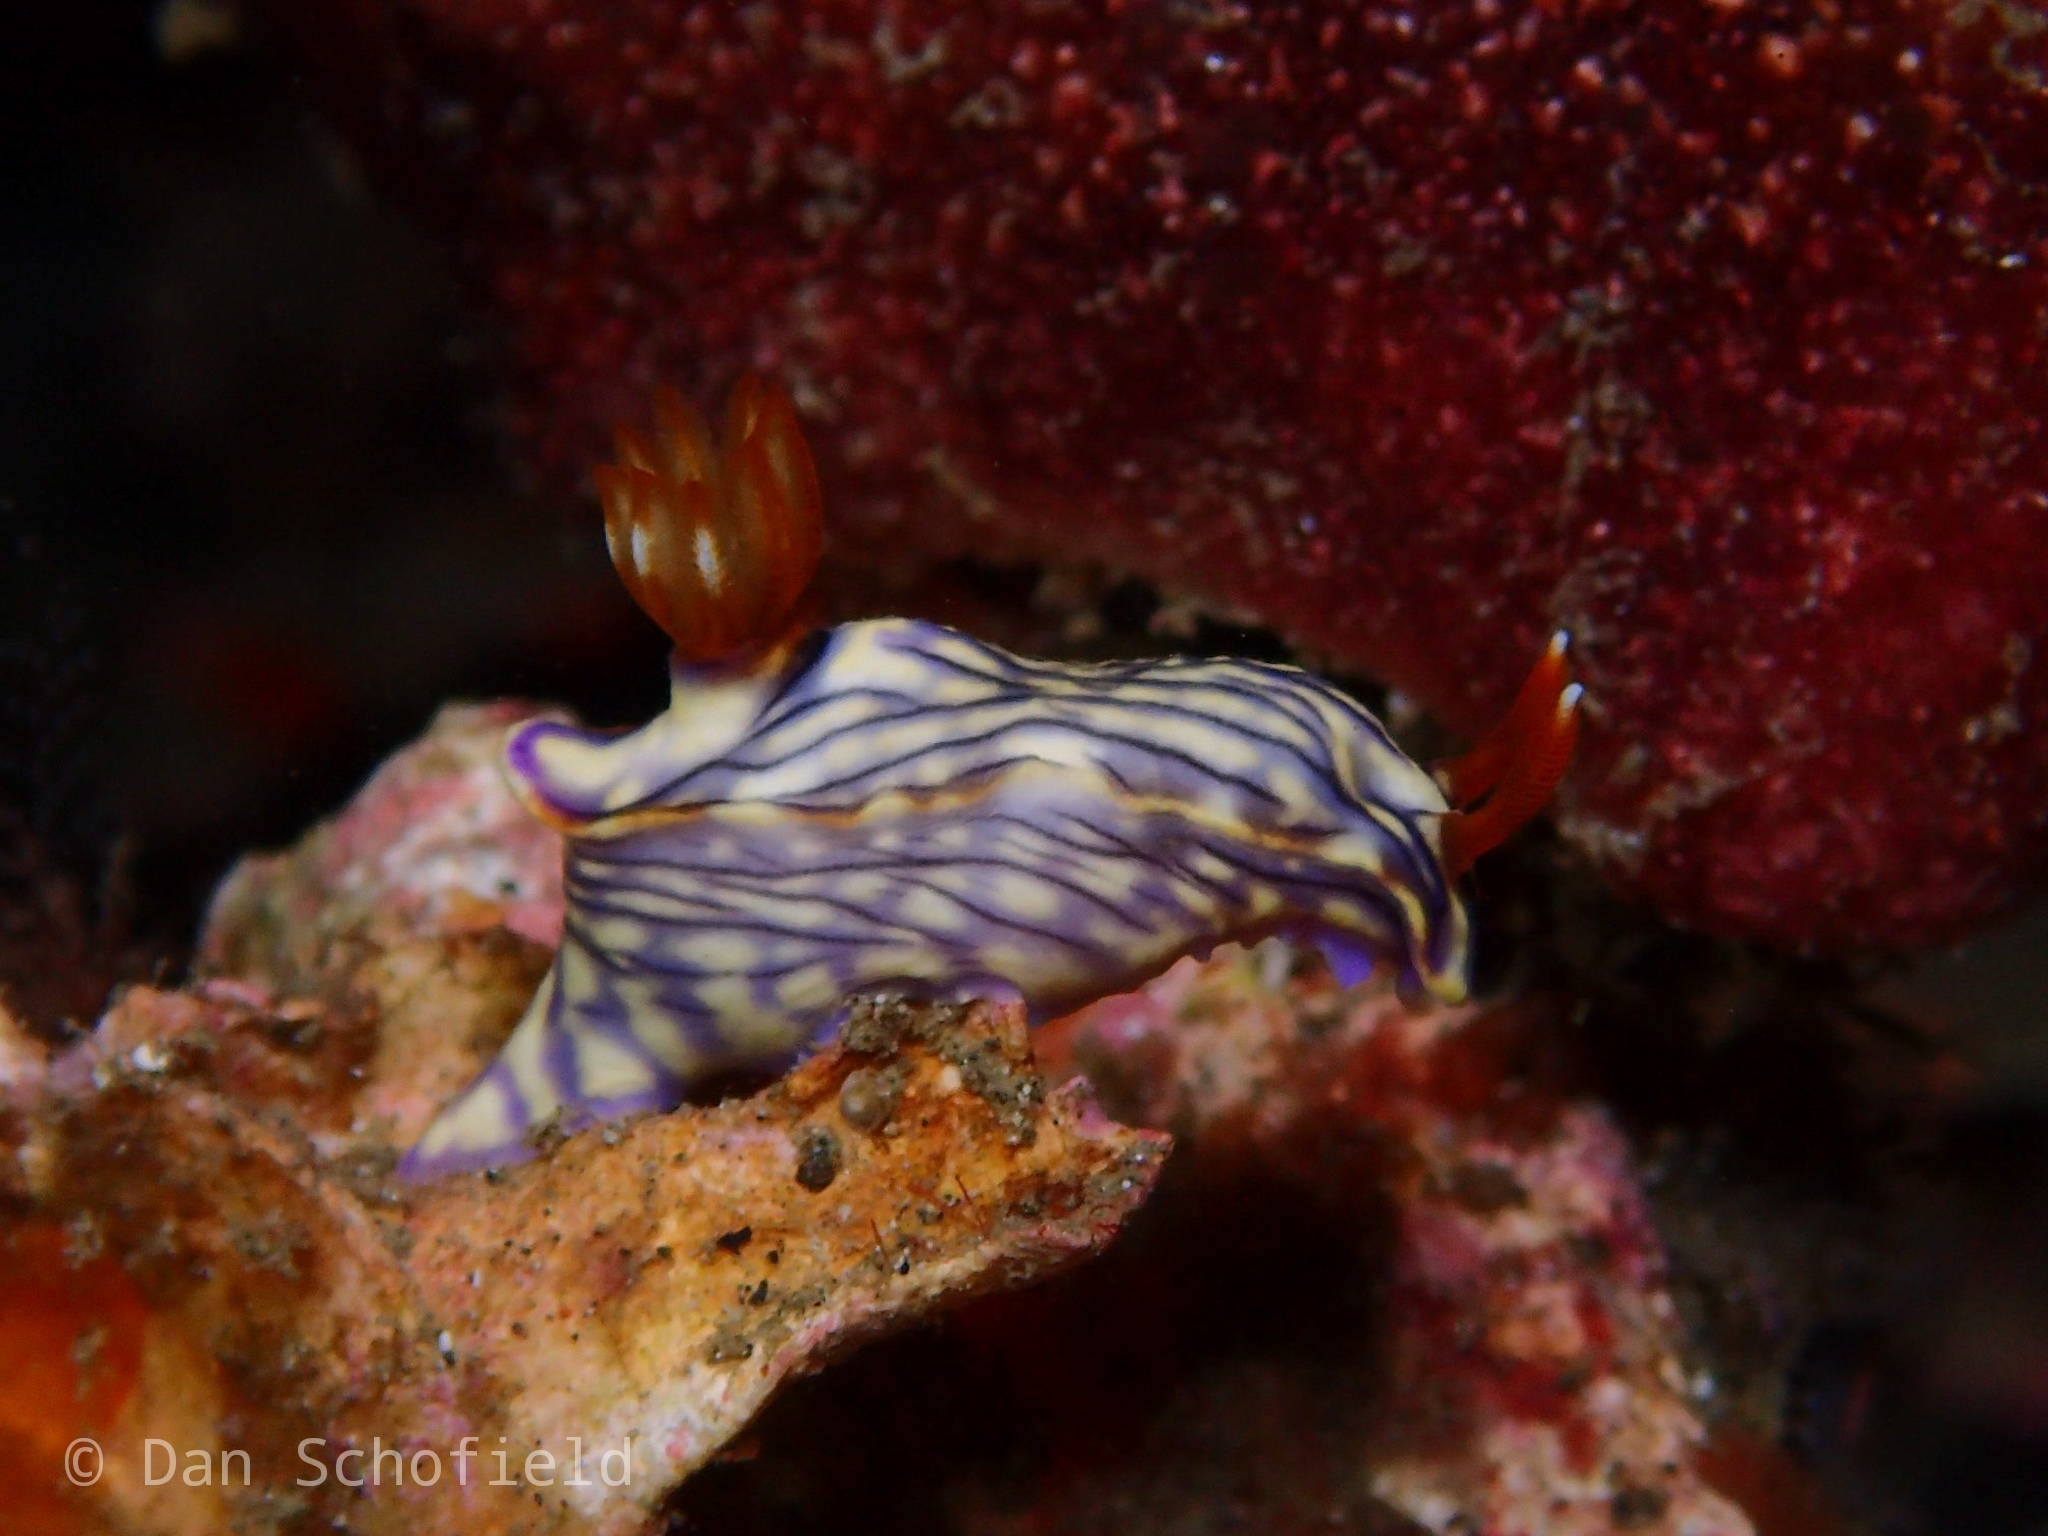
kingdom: Animalia
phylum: Mollusca
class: Gastropoda
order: Nudibranchia
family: Chromodorididae
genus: Hypselodoris
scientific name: Hypselodoris zephyra
